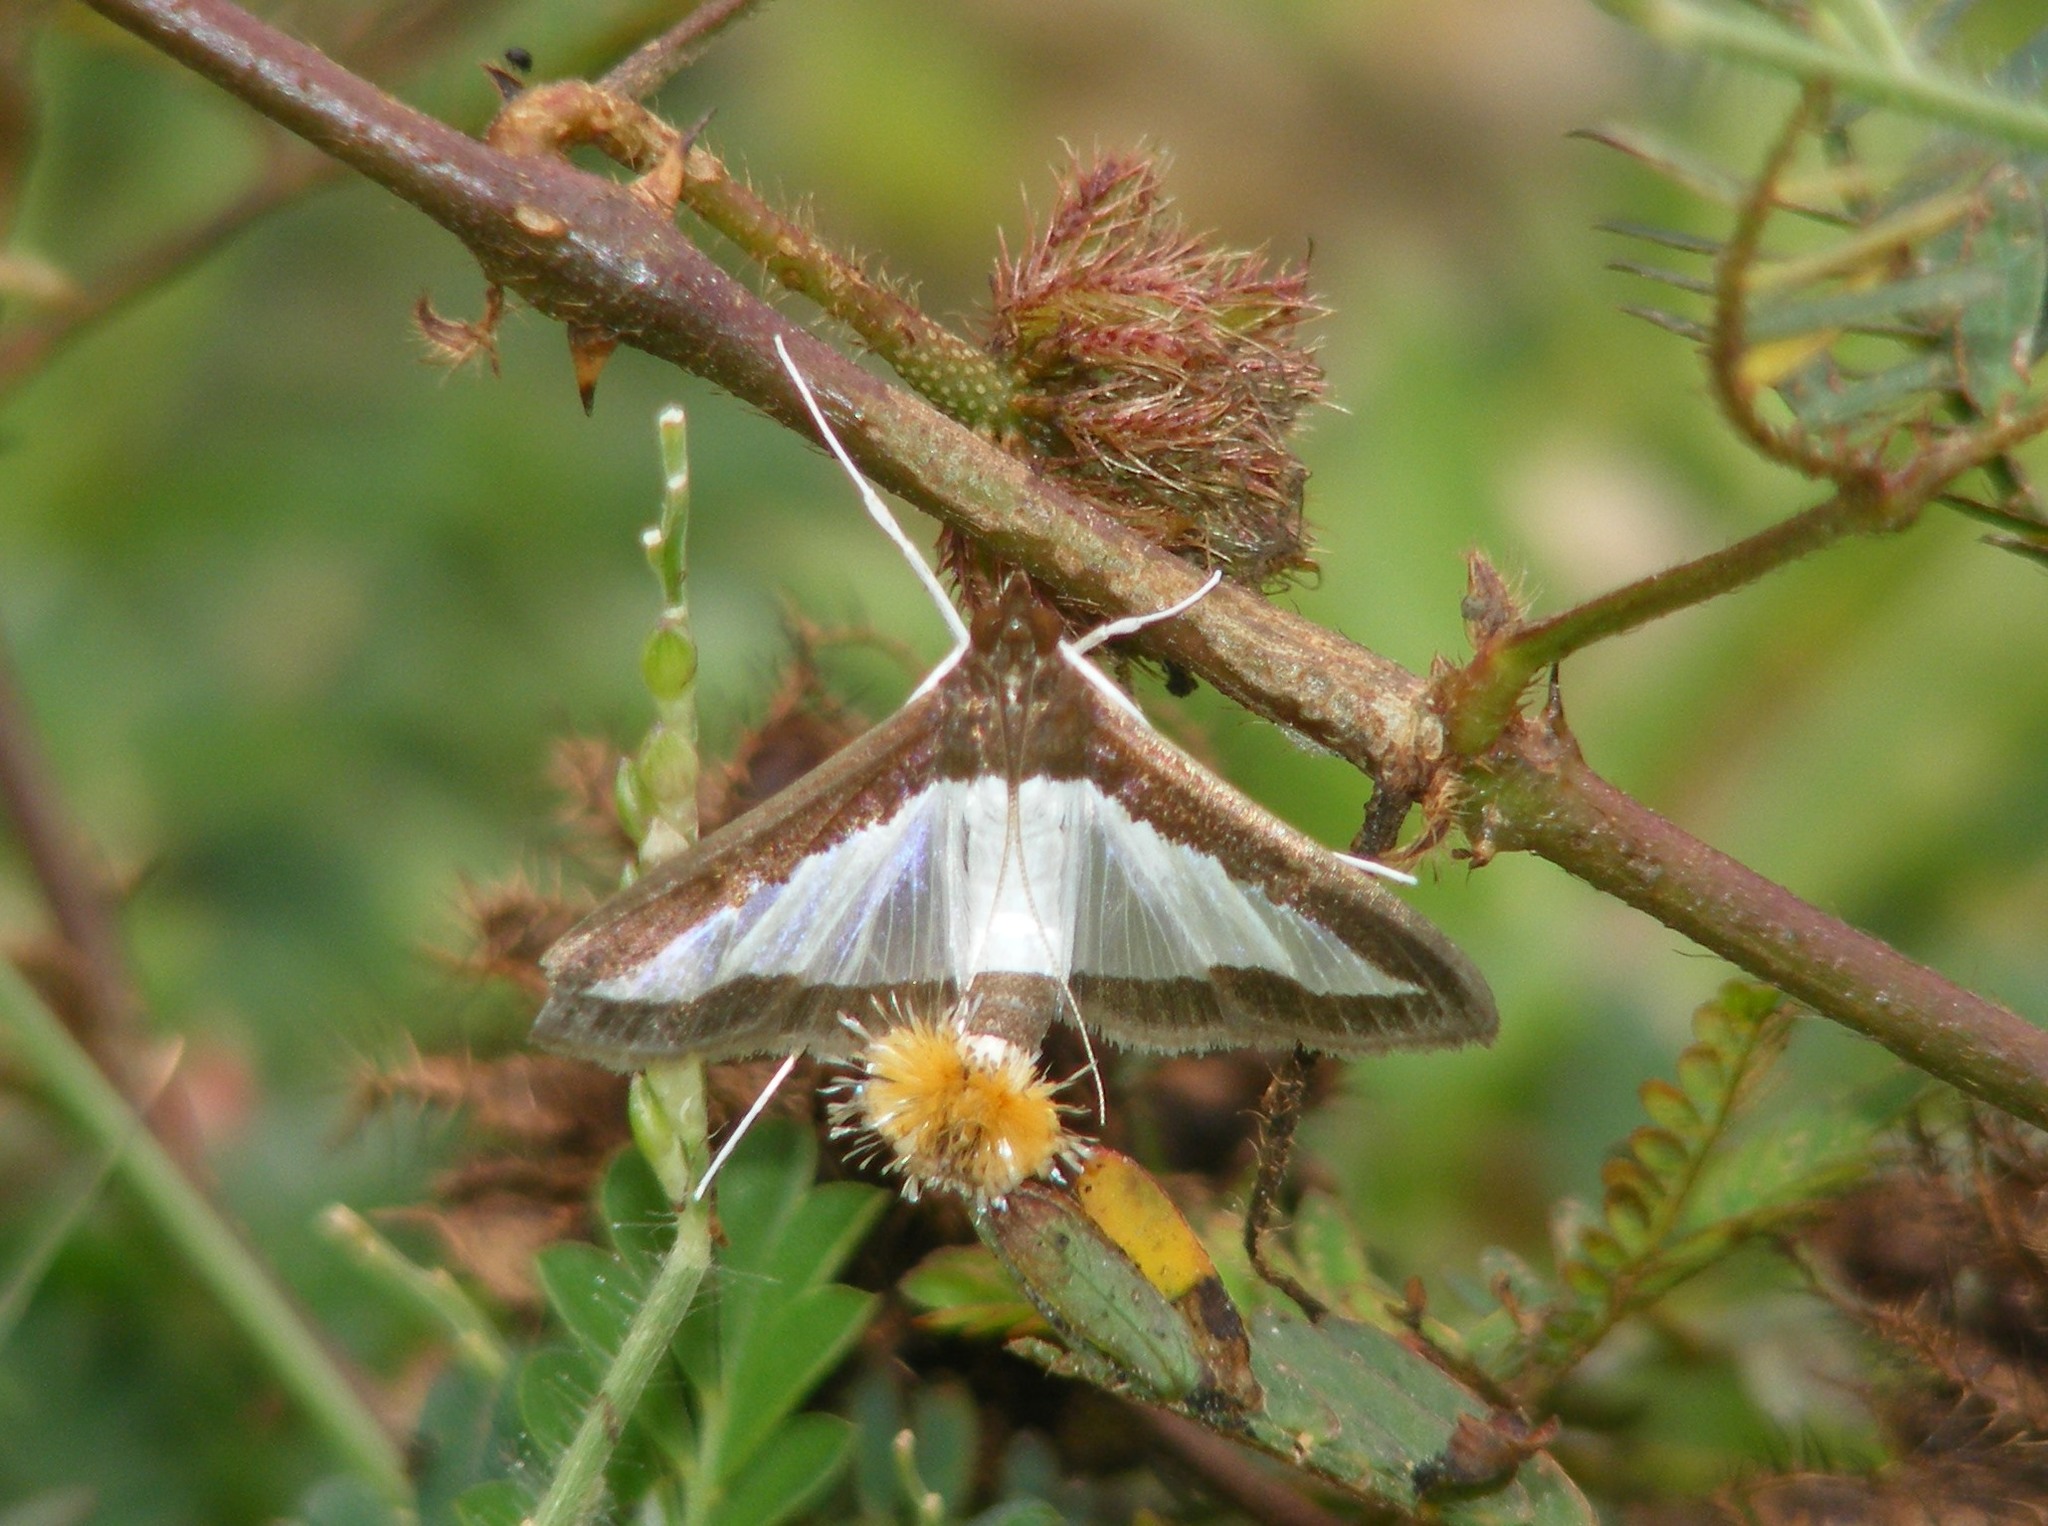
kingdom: Animalia
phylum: Arthropoda
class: Insecta
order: Lepidoptera
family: Crambidae
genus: Diaphania
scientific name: Diaphania indica
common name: Cucumber moth
